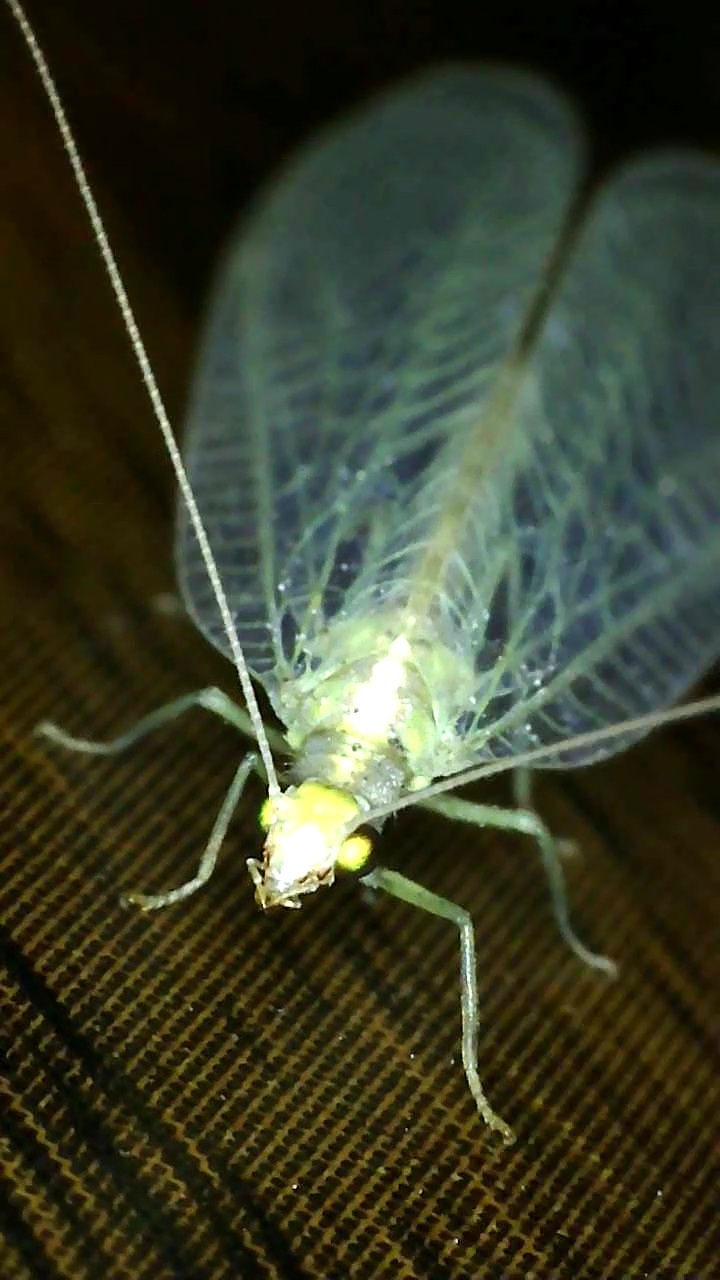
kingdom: Animalia
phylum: Arthropoda
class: Insecta
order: Neuroptera
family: Chrysopidae
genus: Chrysoperla
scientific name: Chrysoperla
